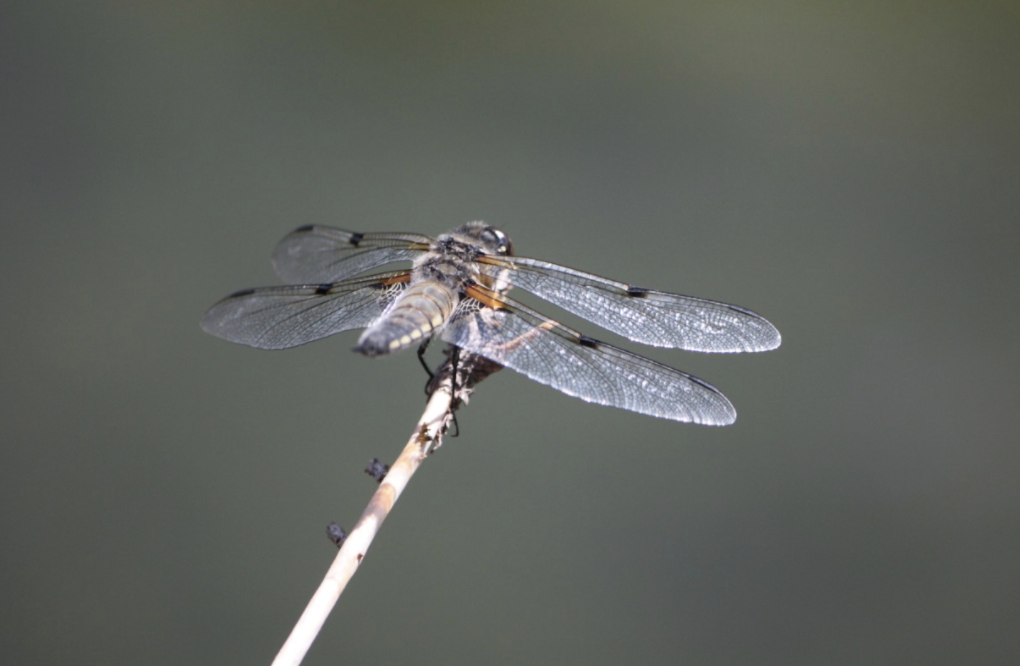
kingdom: Animalia
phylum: Arthropoda
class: Insecta
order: Odonata
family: Libellulidae
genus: Libellula
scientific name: Libellula quadrimaculata
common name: Four-spotted chaser
